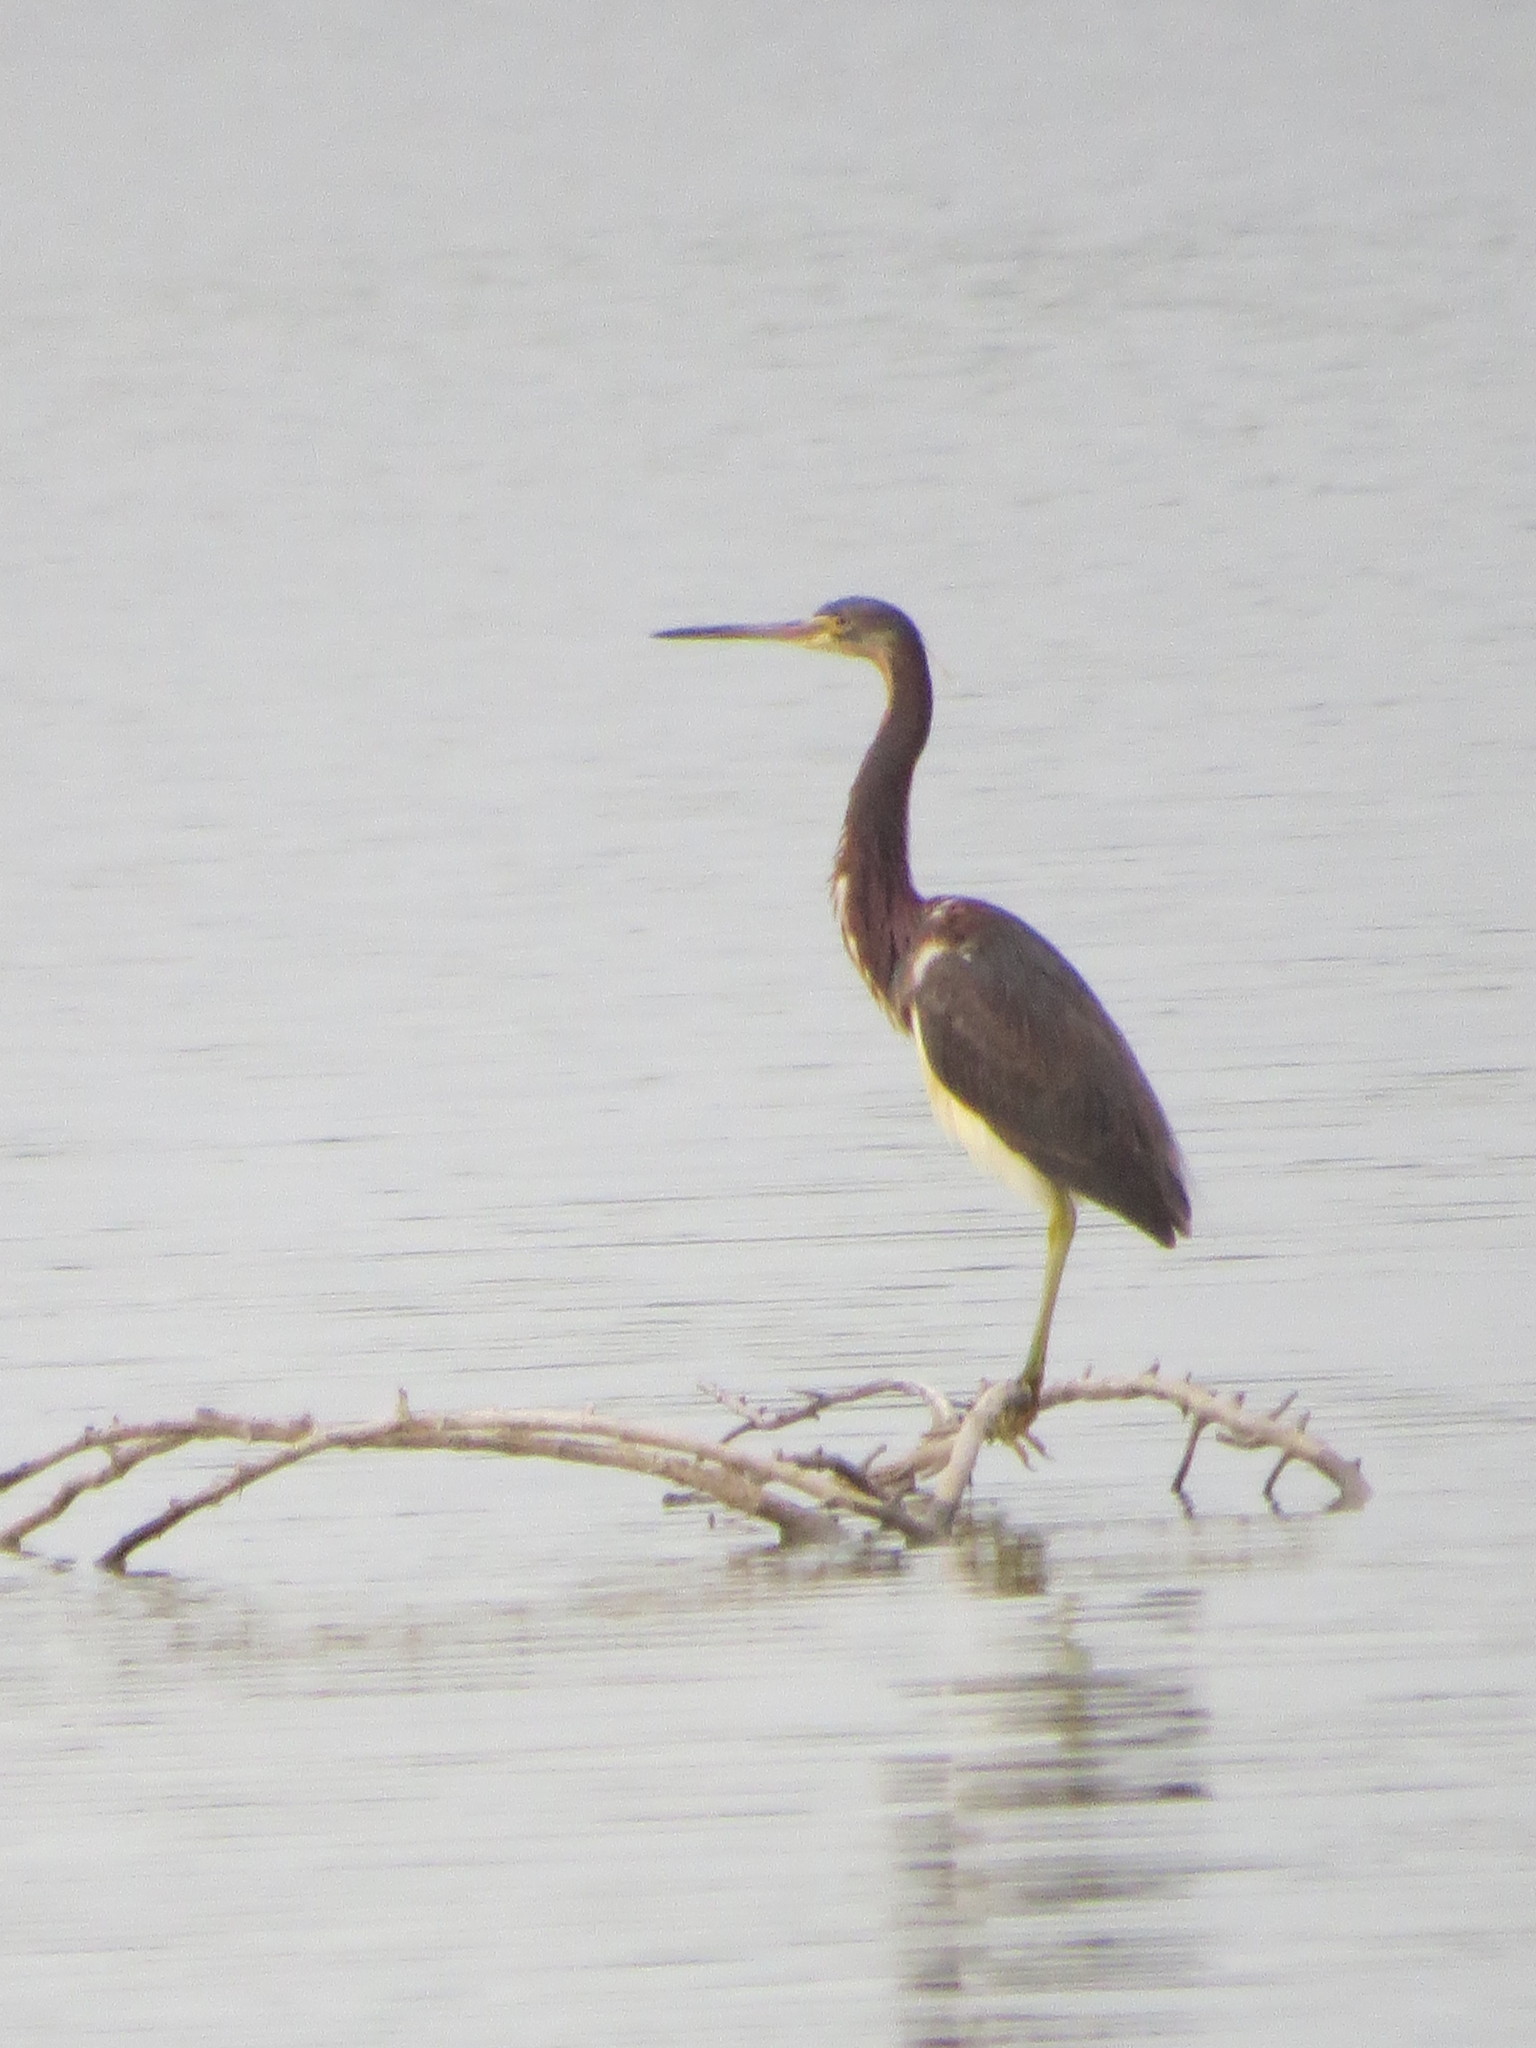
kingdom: Animalia
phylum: Chordata
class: Aves
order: Pelecaniformes
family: Ardeidae
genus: Egretta
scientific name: Egretta tricolor
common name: Tricolored heron
